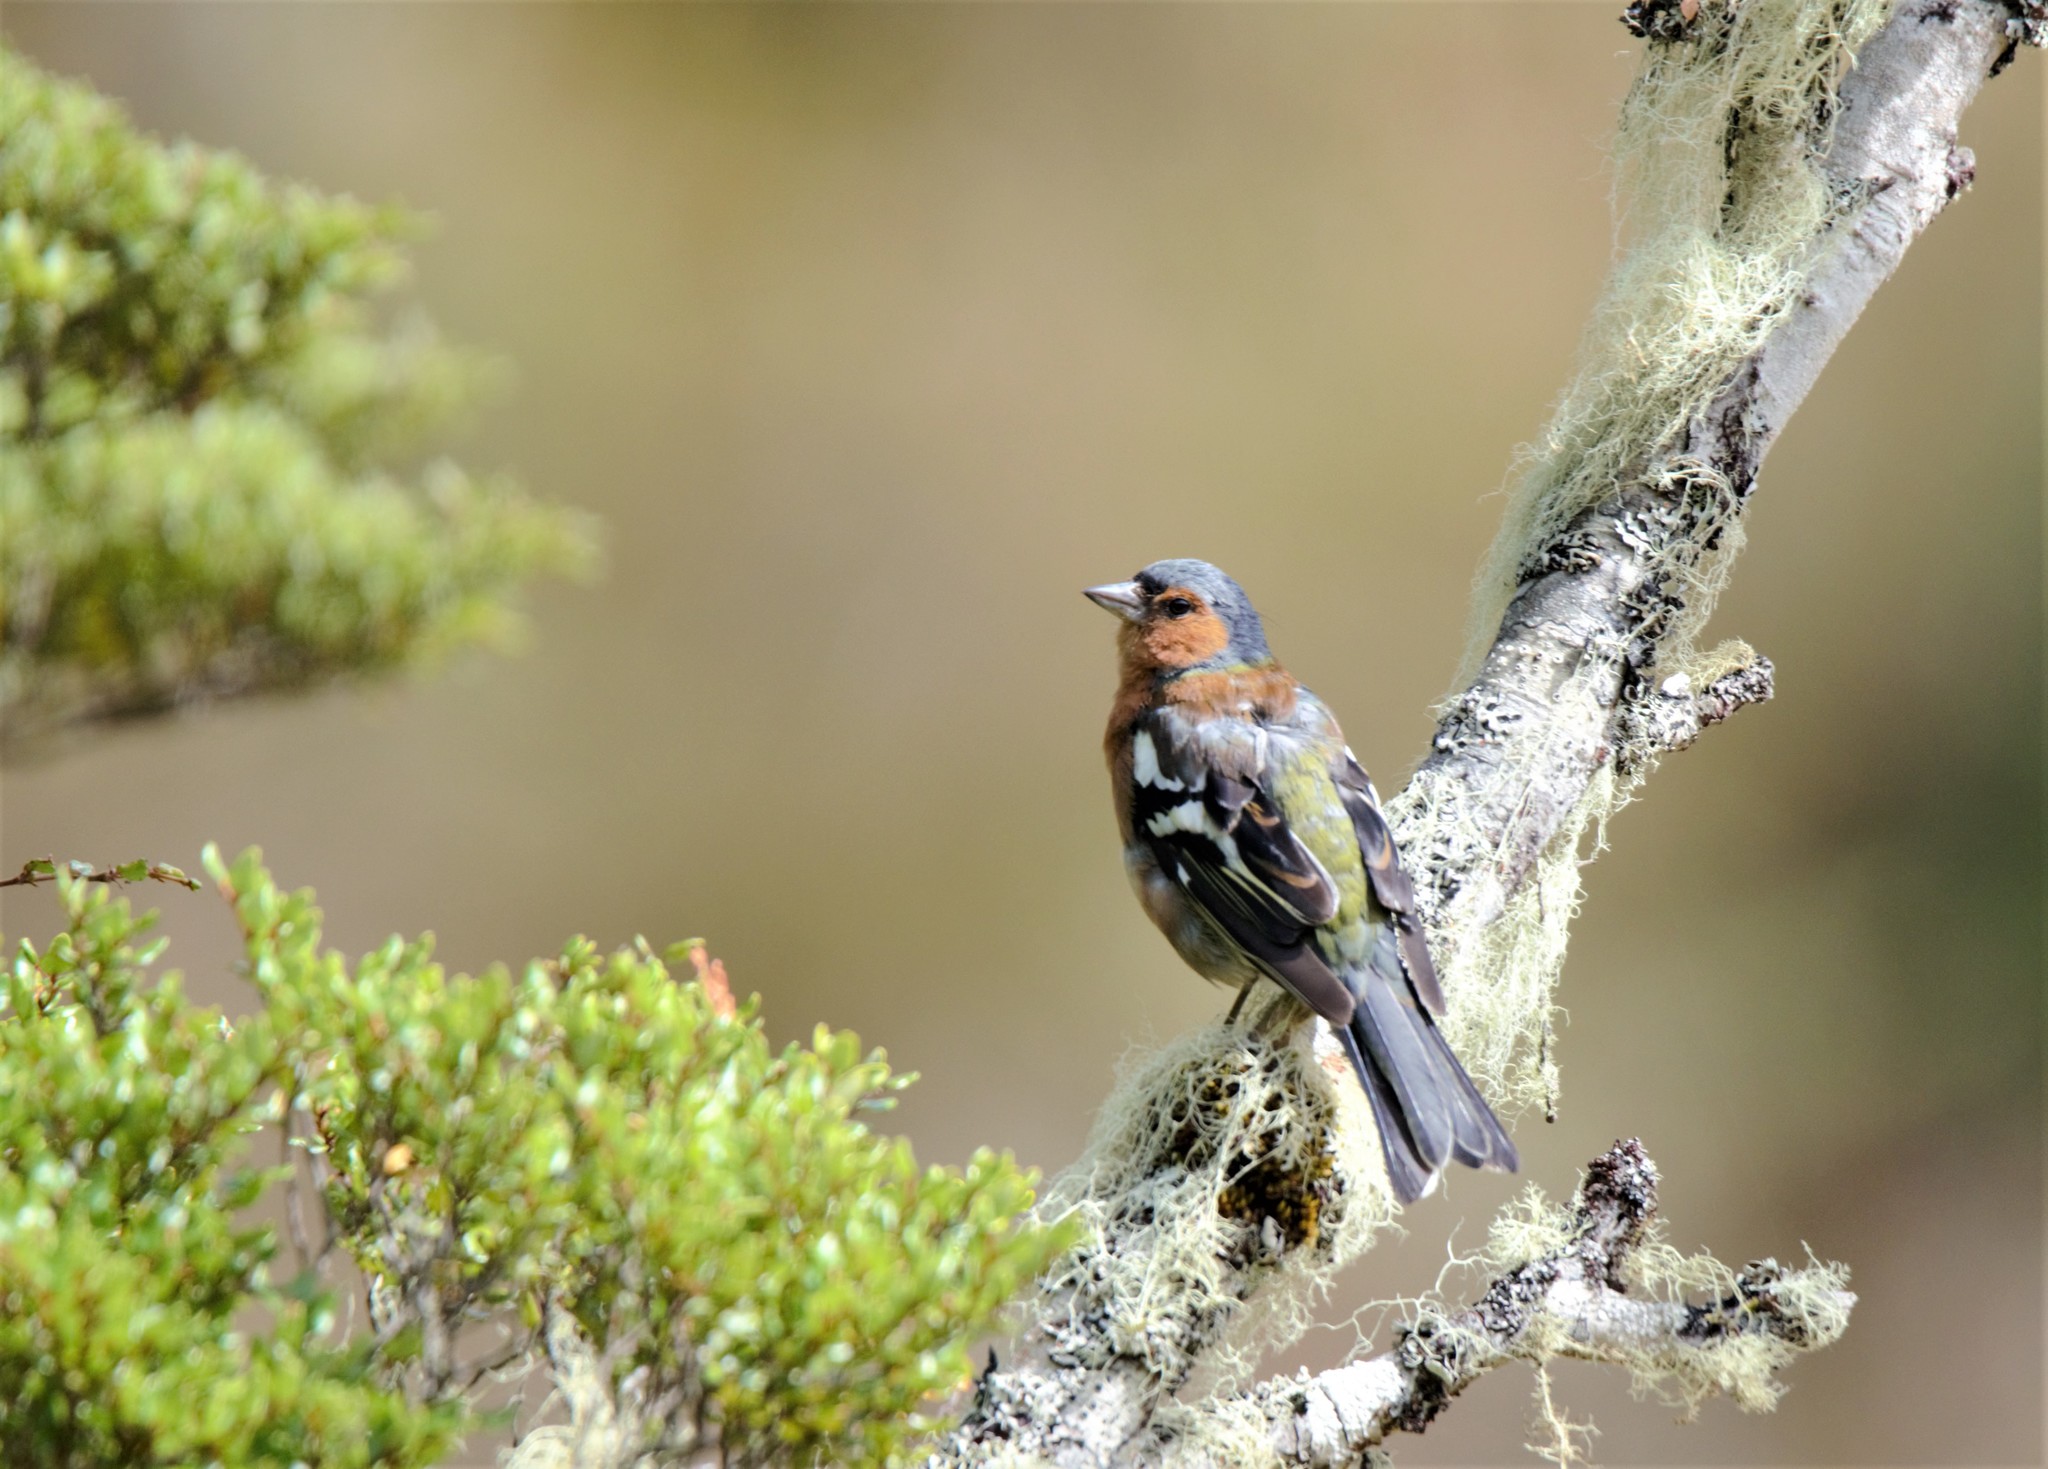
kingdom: Animalia
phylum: Chordata
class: Aves
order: Passeriformes
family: Fringillidae
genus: Fringilla
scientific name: Fringilla coelebs
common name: Common chaffinch
